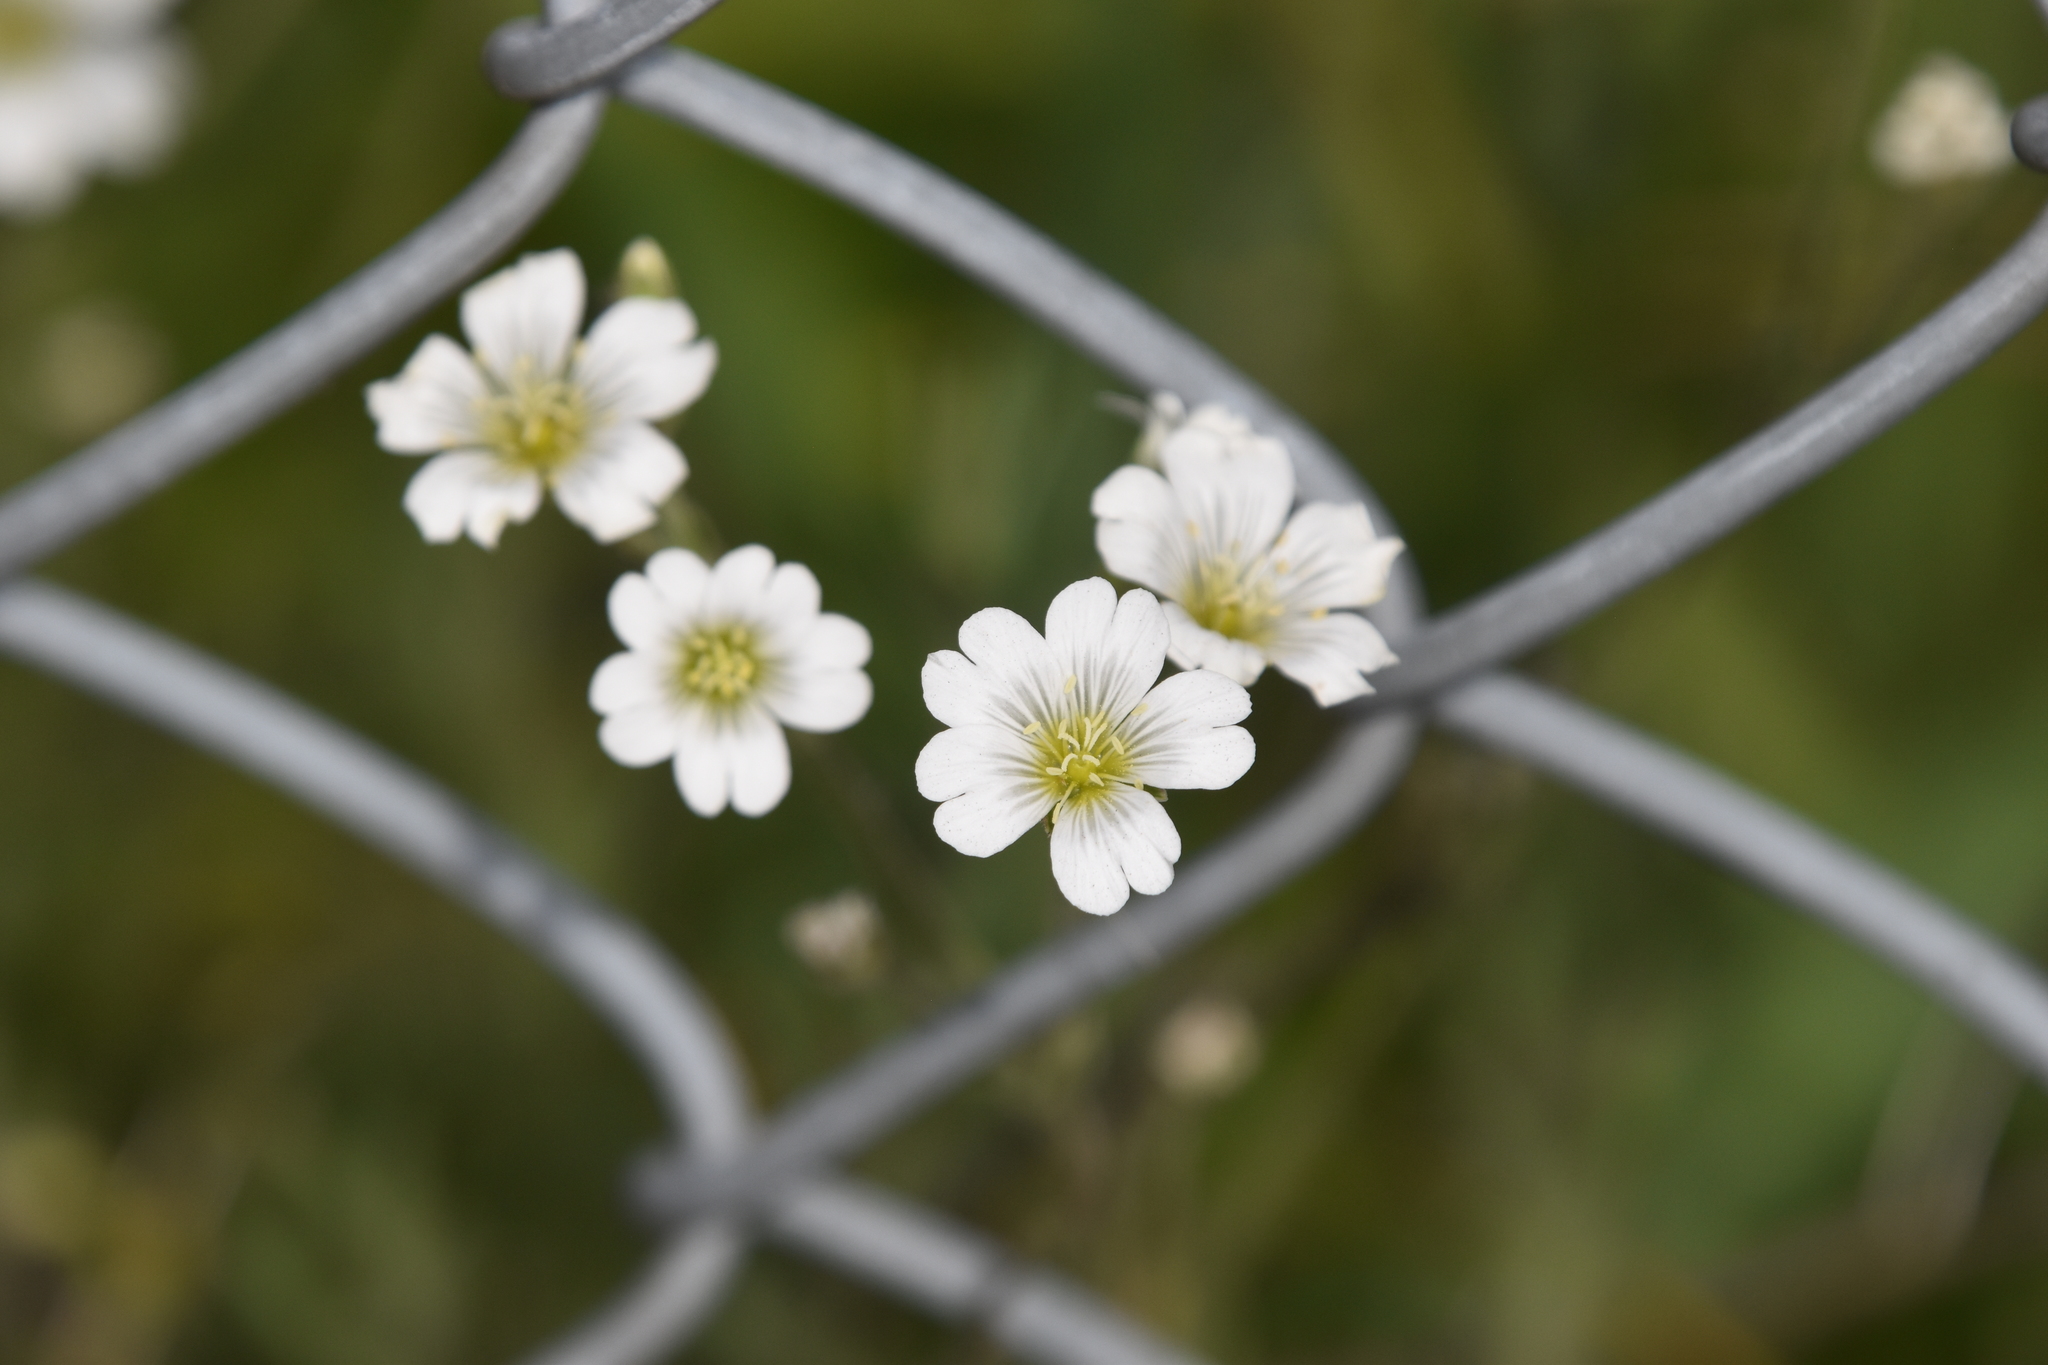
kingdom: Plantae
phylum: Tracheophyta
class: Magnoliopsida
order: Caryophyllales
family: Caryophyllaceae
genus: Cerastium
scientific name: Cerastium arvense
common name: Field mouse-ear
